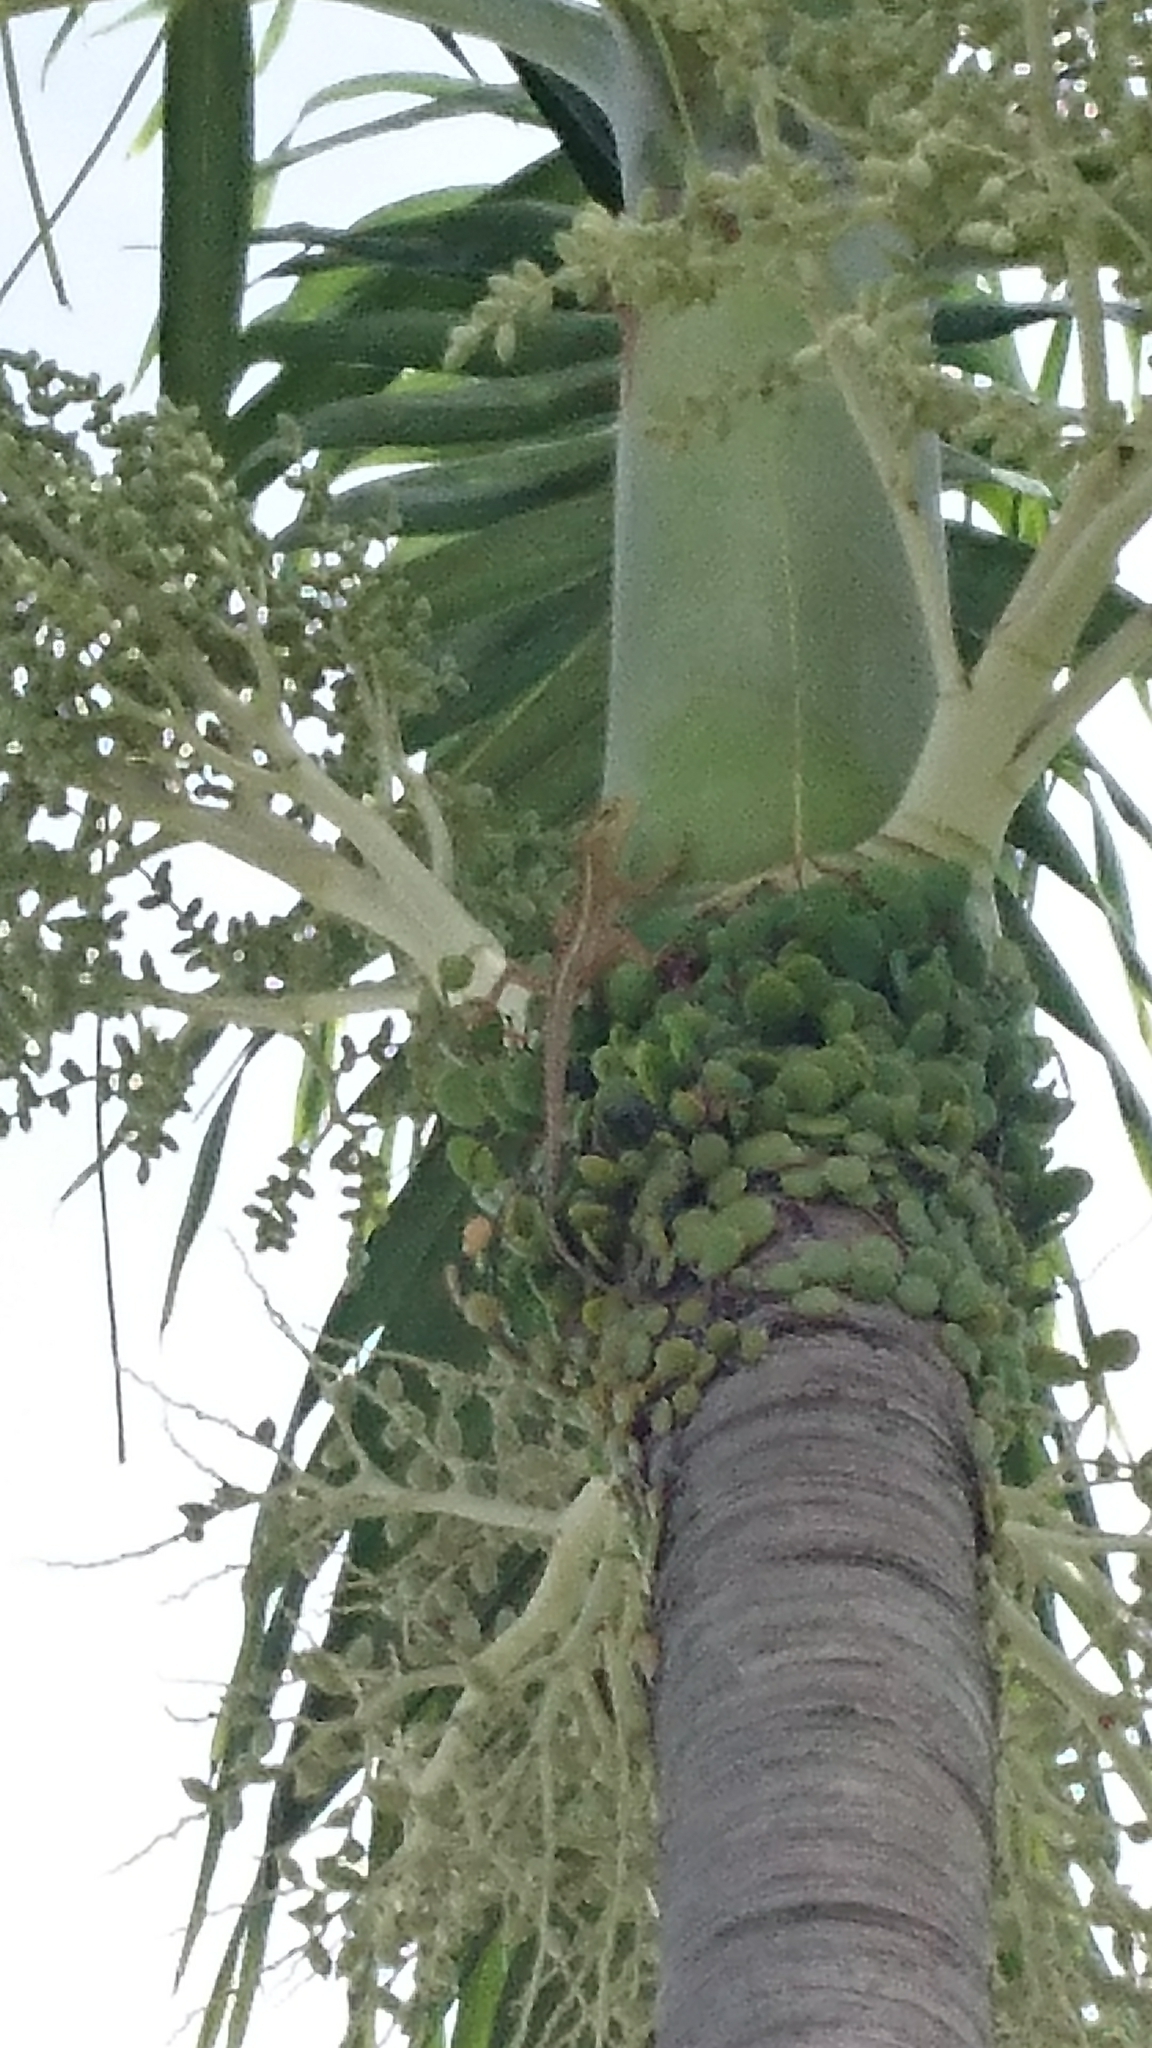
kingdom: Animalia
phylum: Chordata
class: Squamata
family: Agamidae
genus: Calotes
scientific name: Calotes versicolor
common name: Oriental garden lizard
